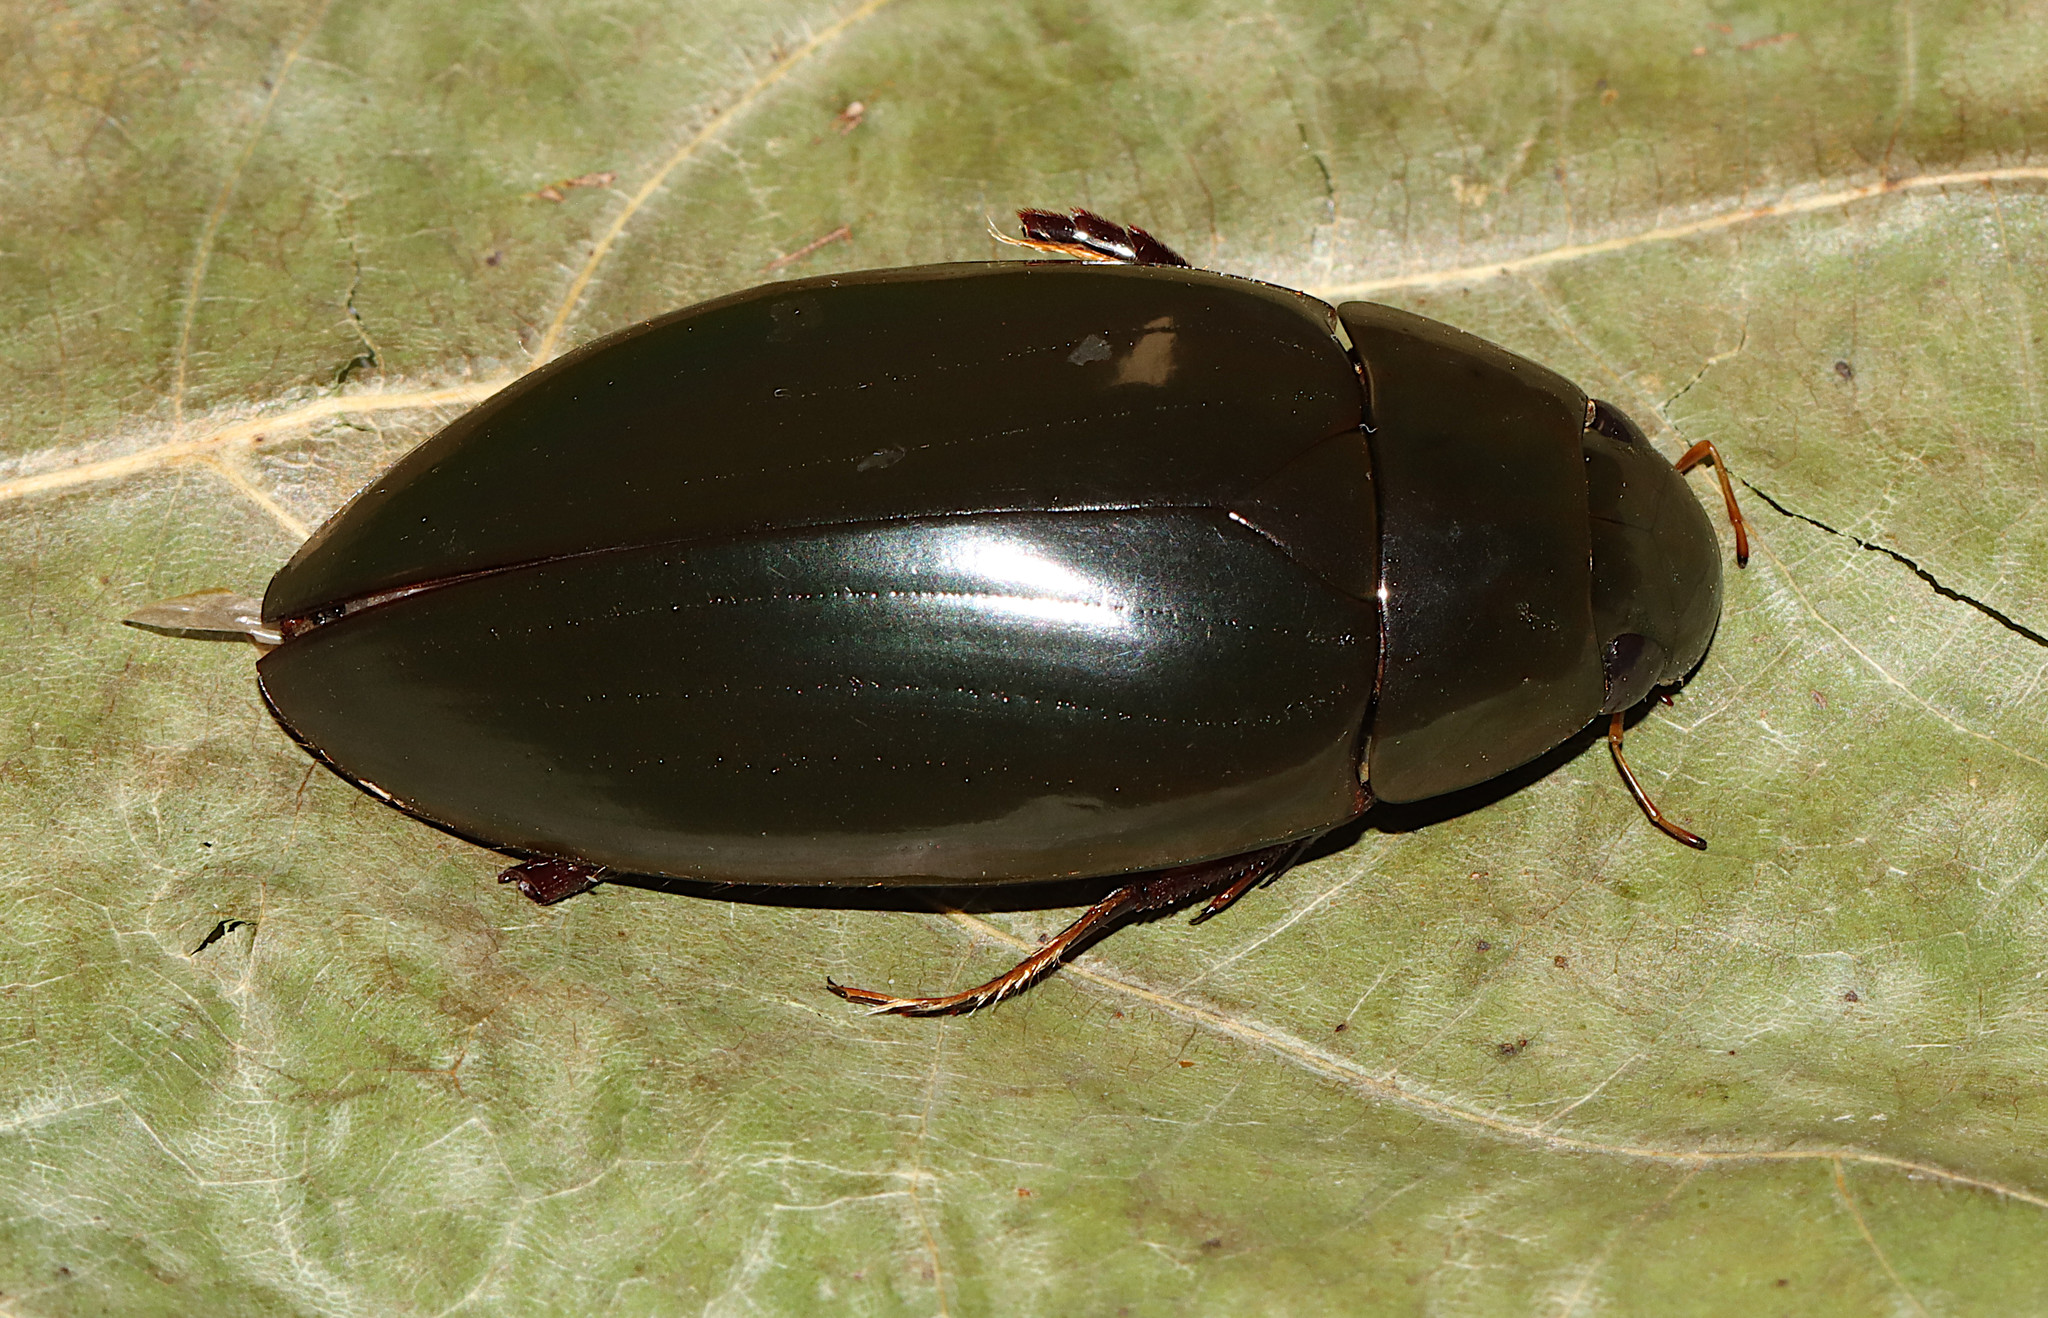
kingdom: Animalia
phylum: Arthropoda
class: Insecta
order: Coleoptera
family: Hydrophilidae
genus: Hydrophilus
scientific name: Hydrophilus triangularis
